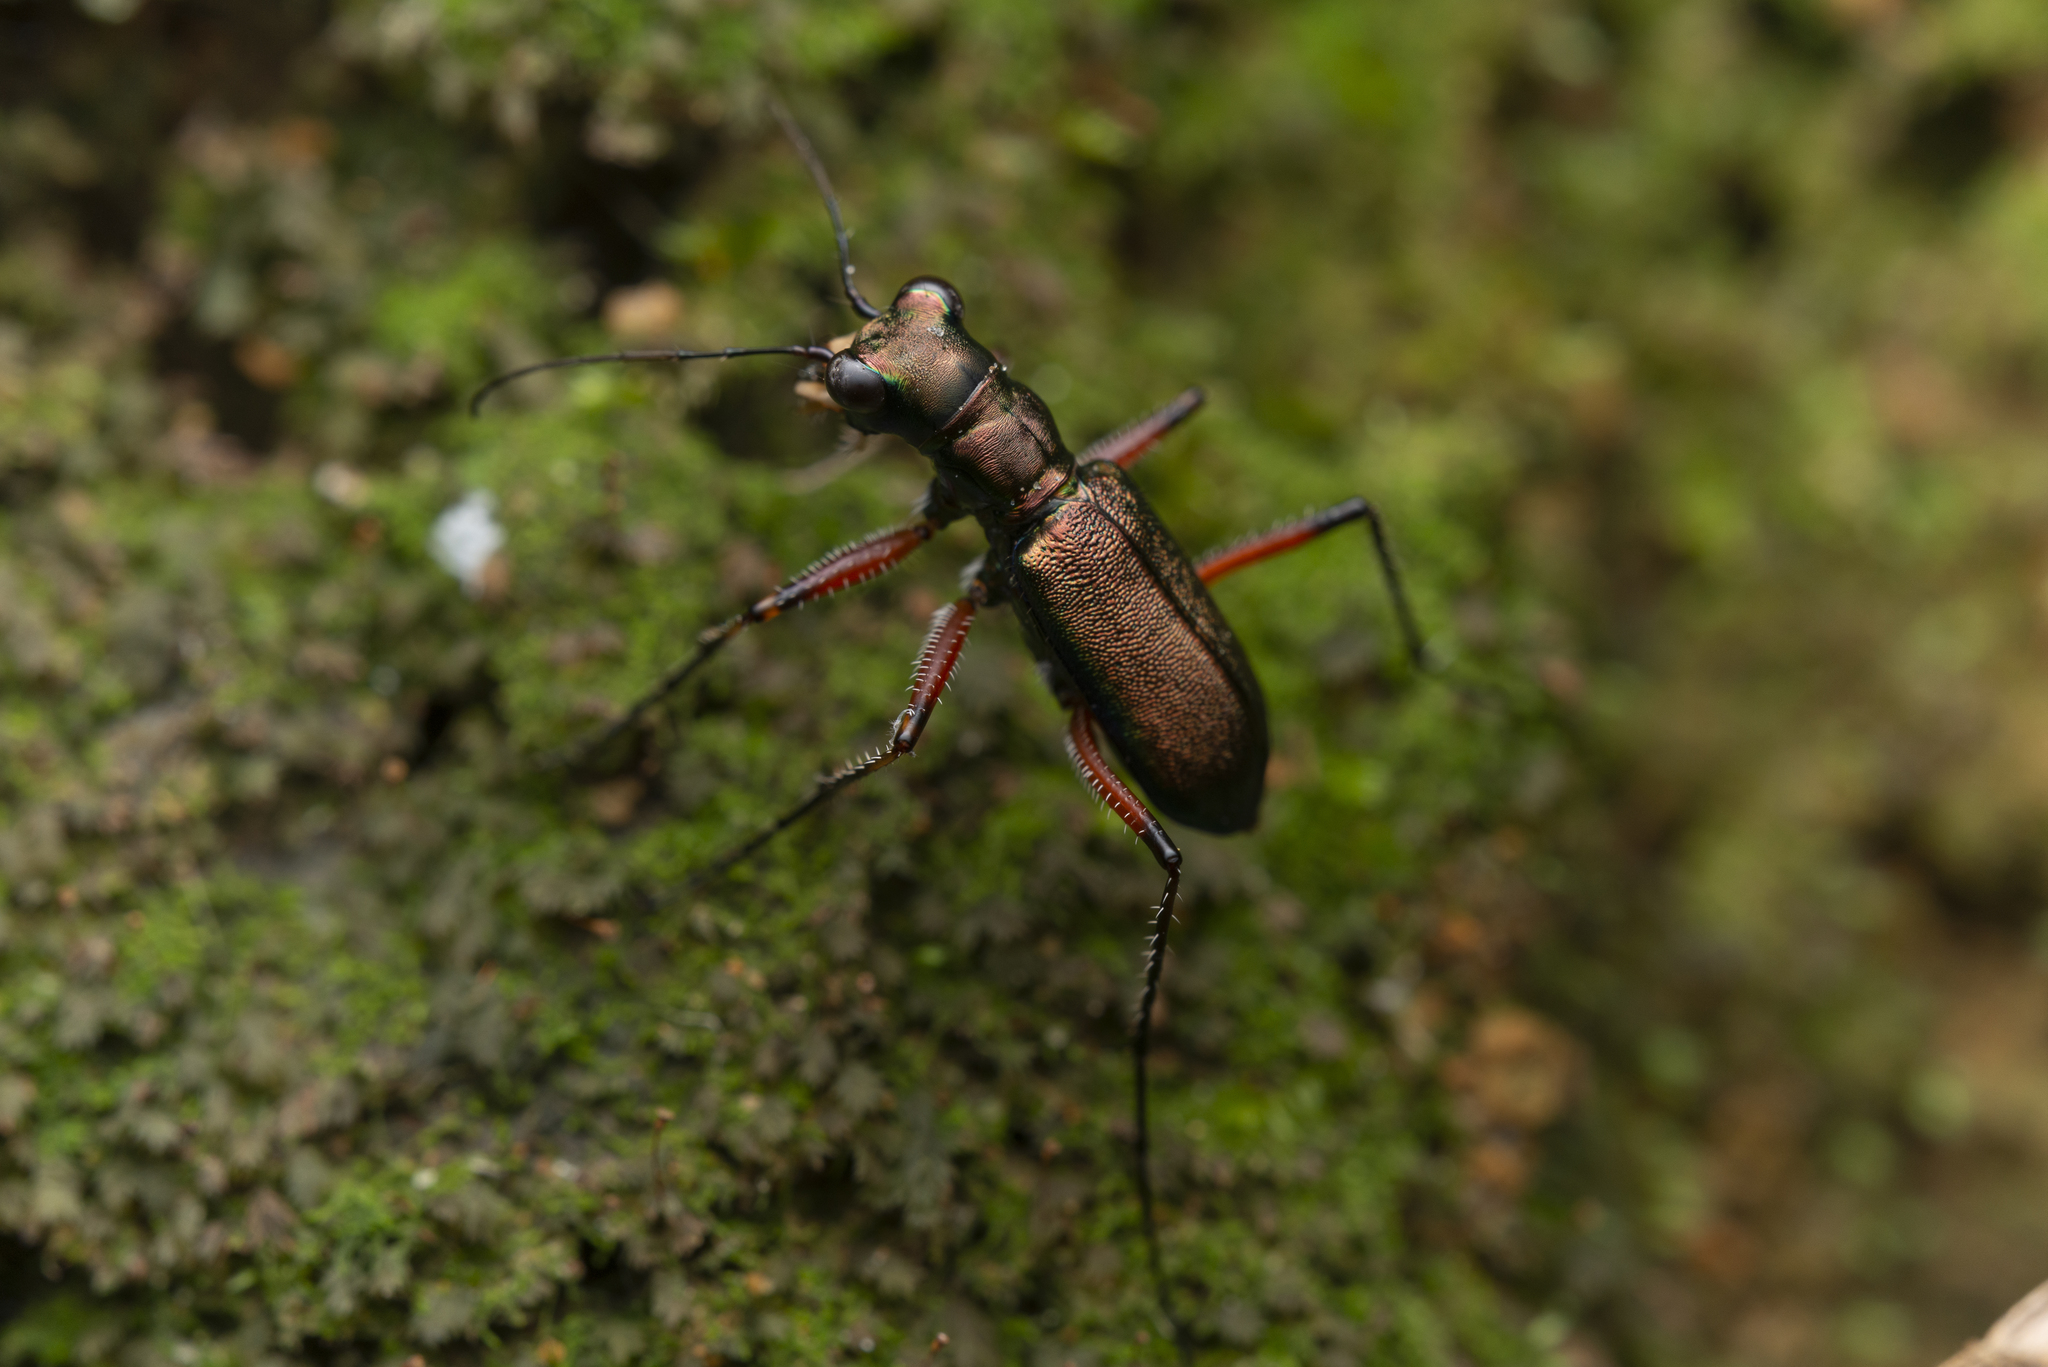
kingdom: Animalia
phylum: Arthropoda
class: Insecta
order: Coleoptera
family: Carabidae
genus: Heptodonta
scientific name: Heptodonta posticalis
